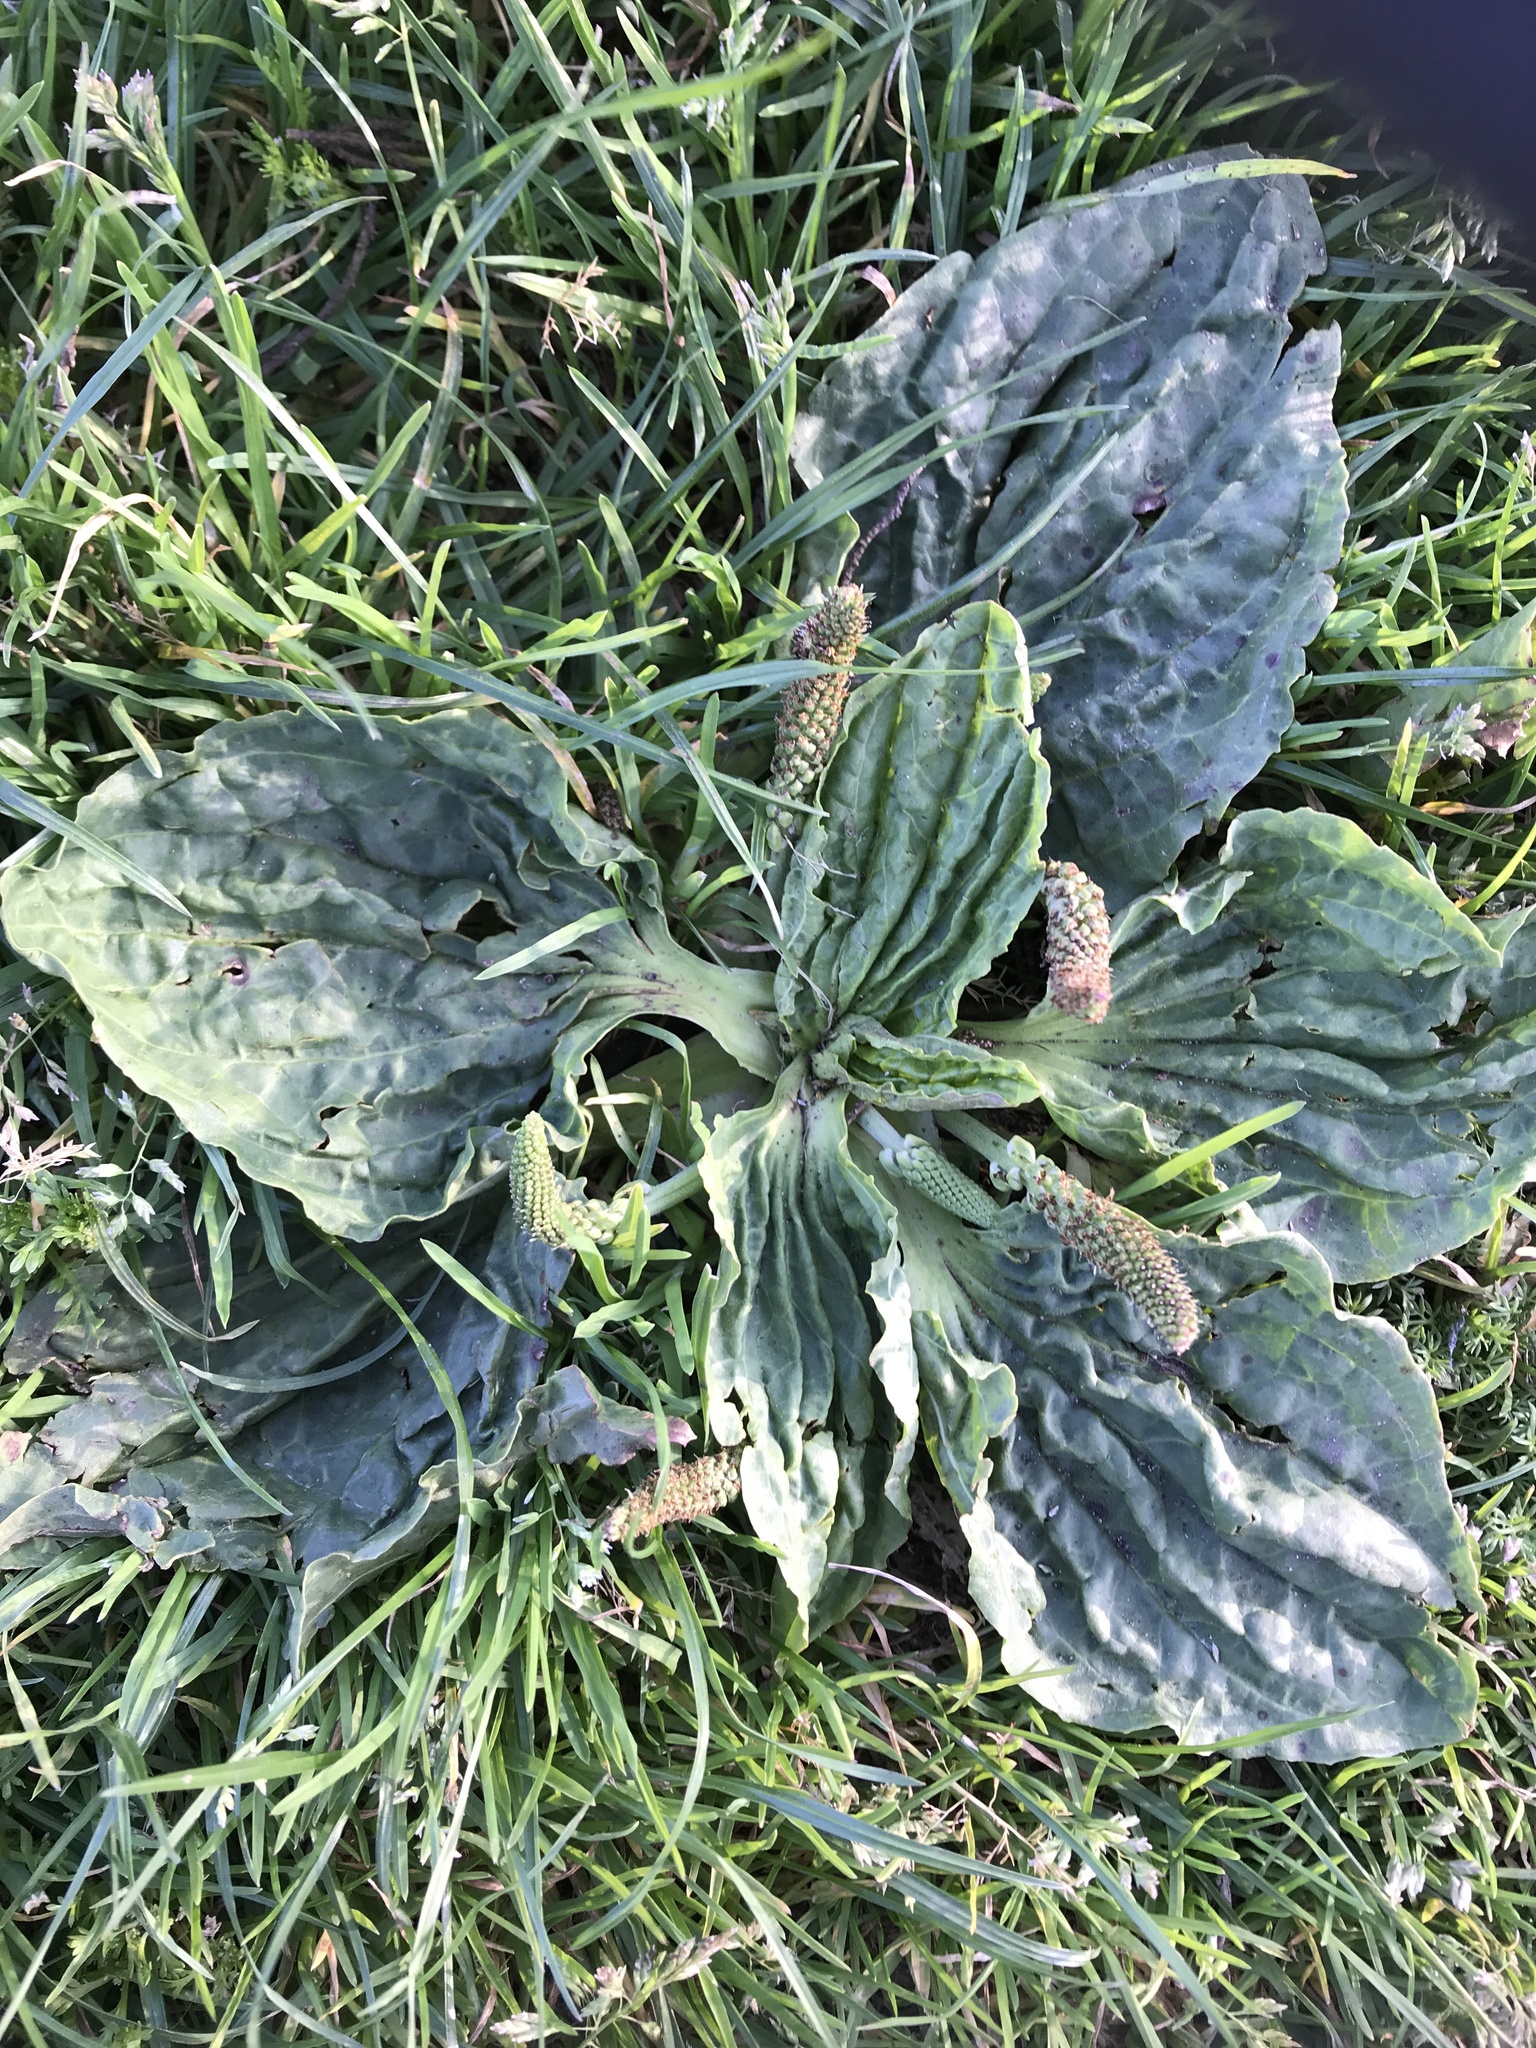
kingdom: Plantae
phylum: Tracheophyta
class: Magnoliopsida
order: Lamiales
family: Plantaginaceae
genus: Plantago
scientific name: Plantago major
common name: Common plantain
